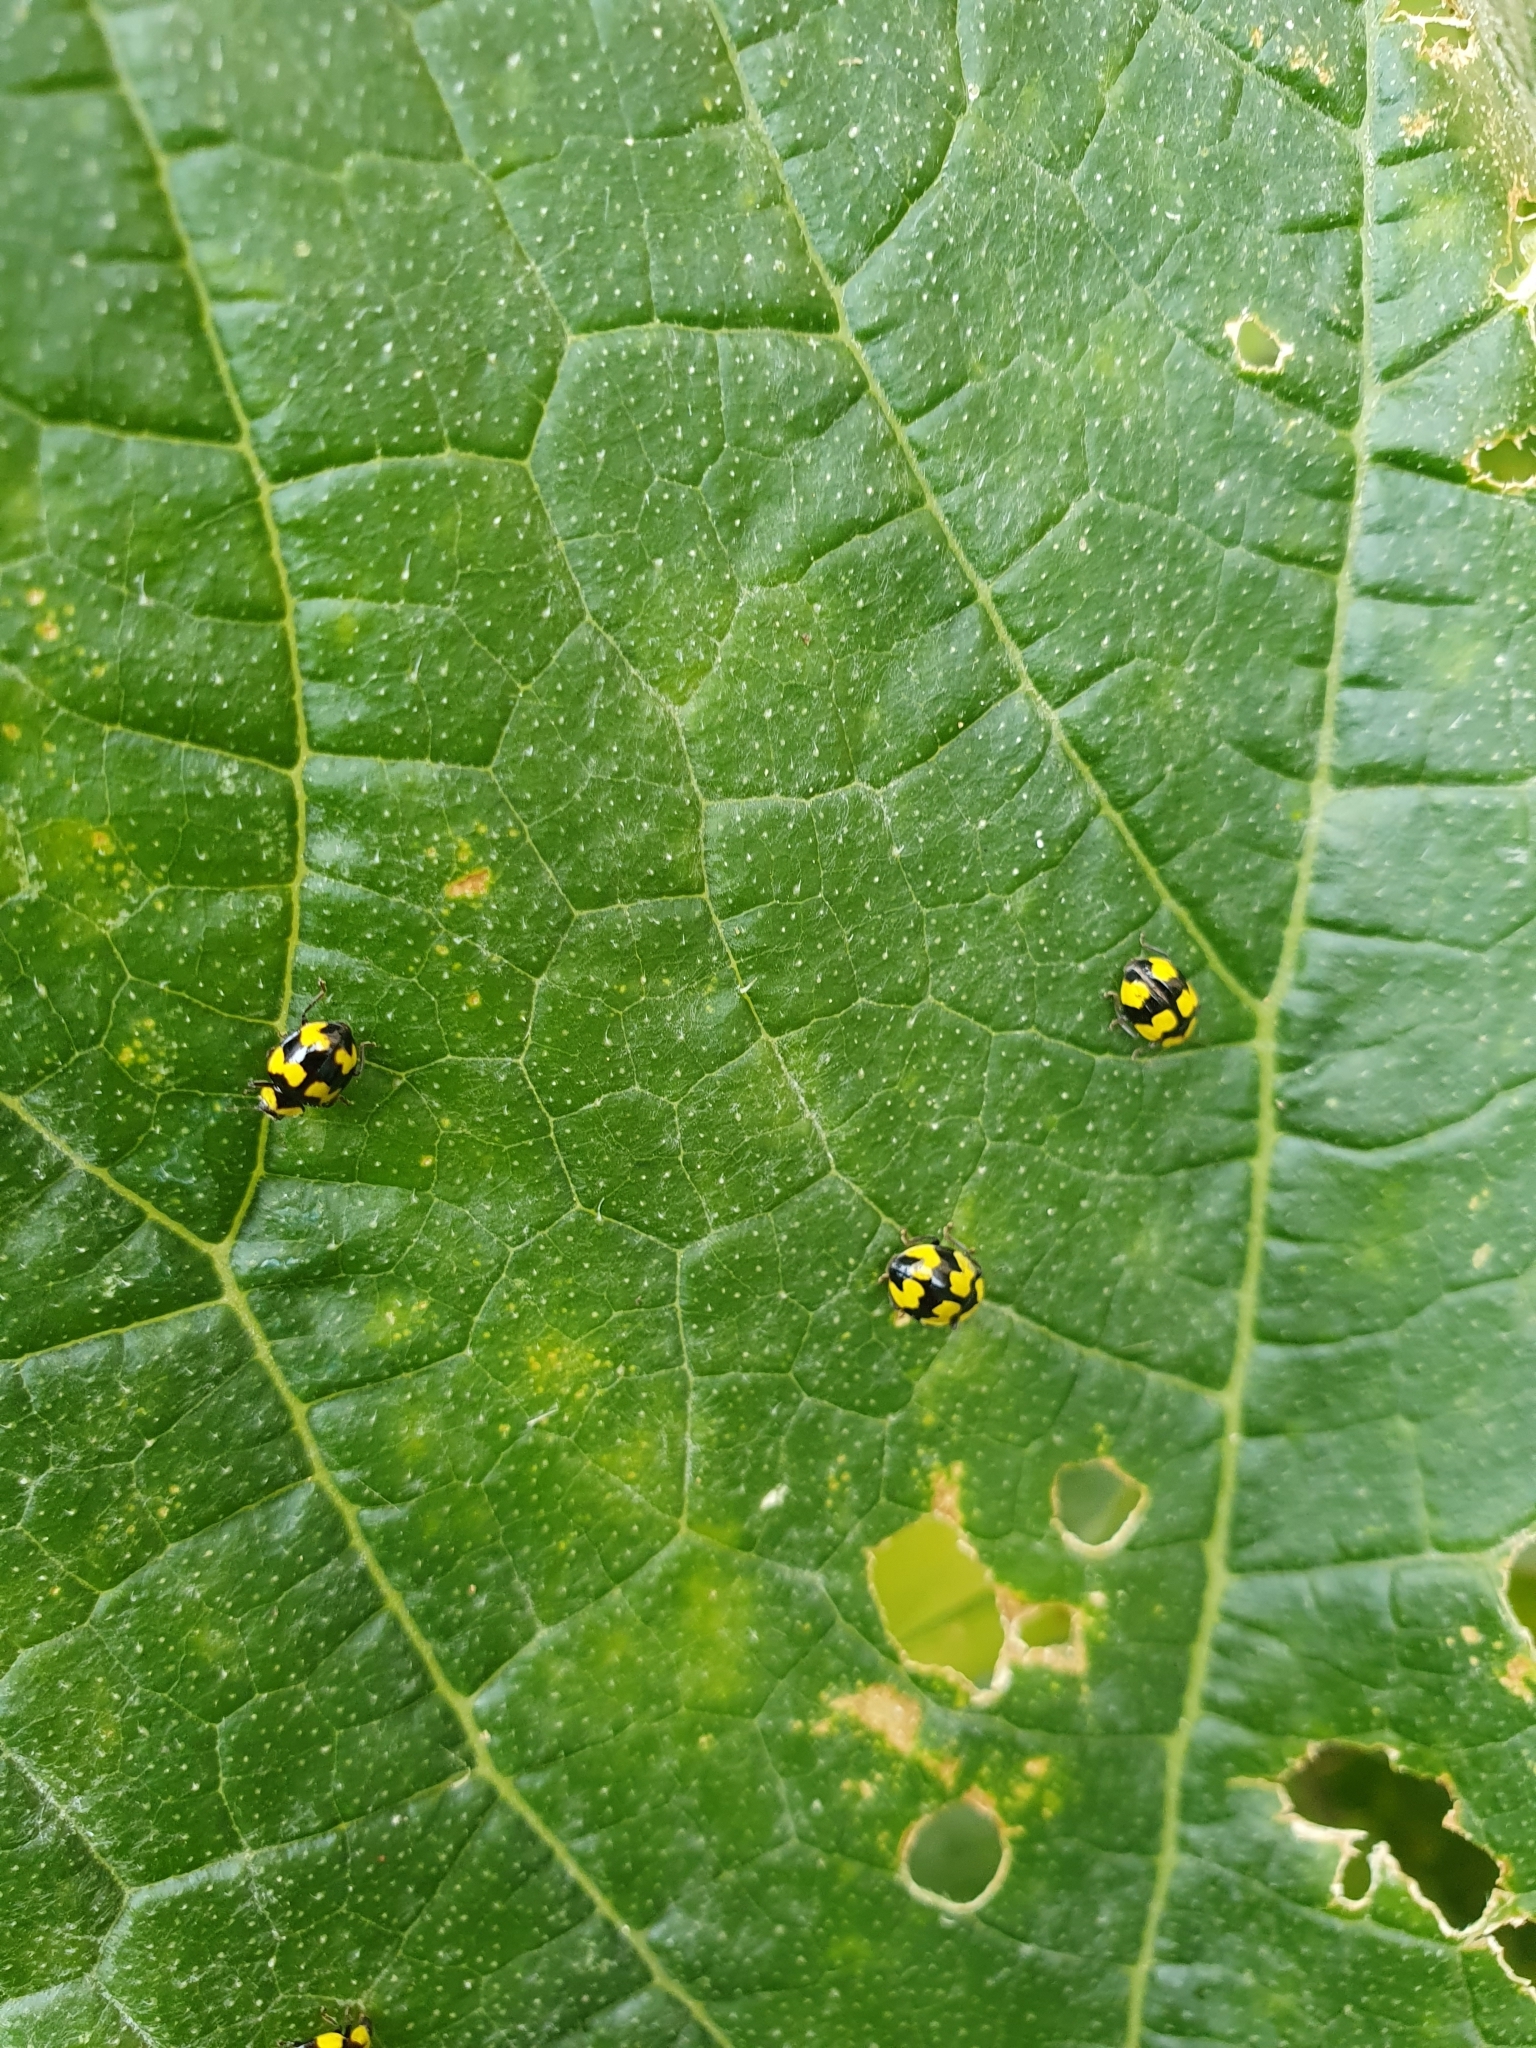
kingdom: Animalia
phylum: Arthropoda
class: Insecta
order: Coleoptera
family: Coccinellidae
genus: Illeis
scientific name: Illeis galbula
